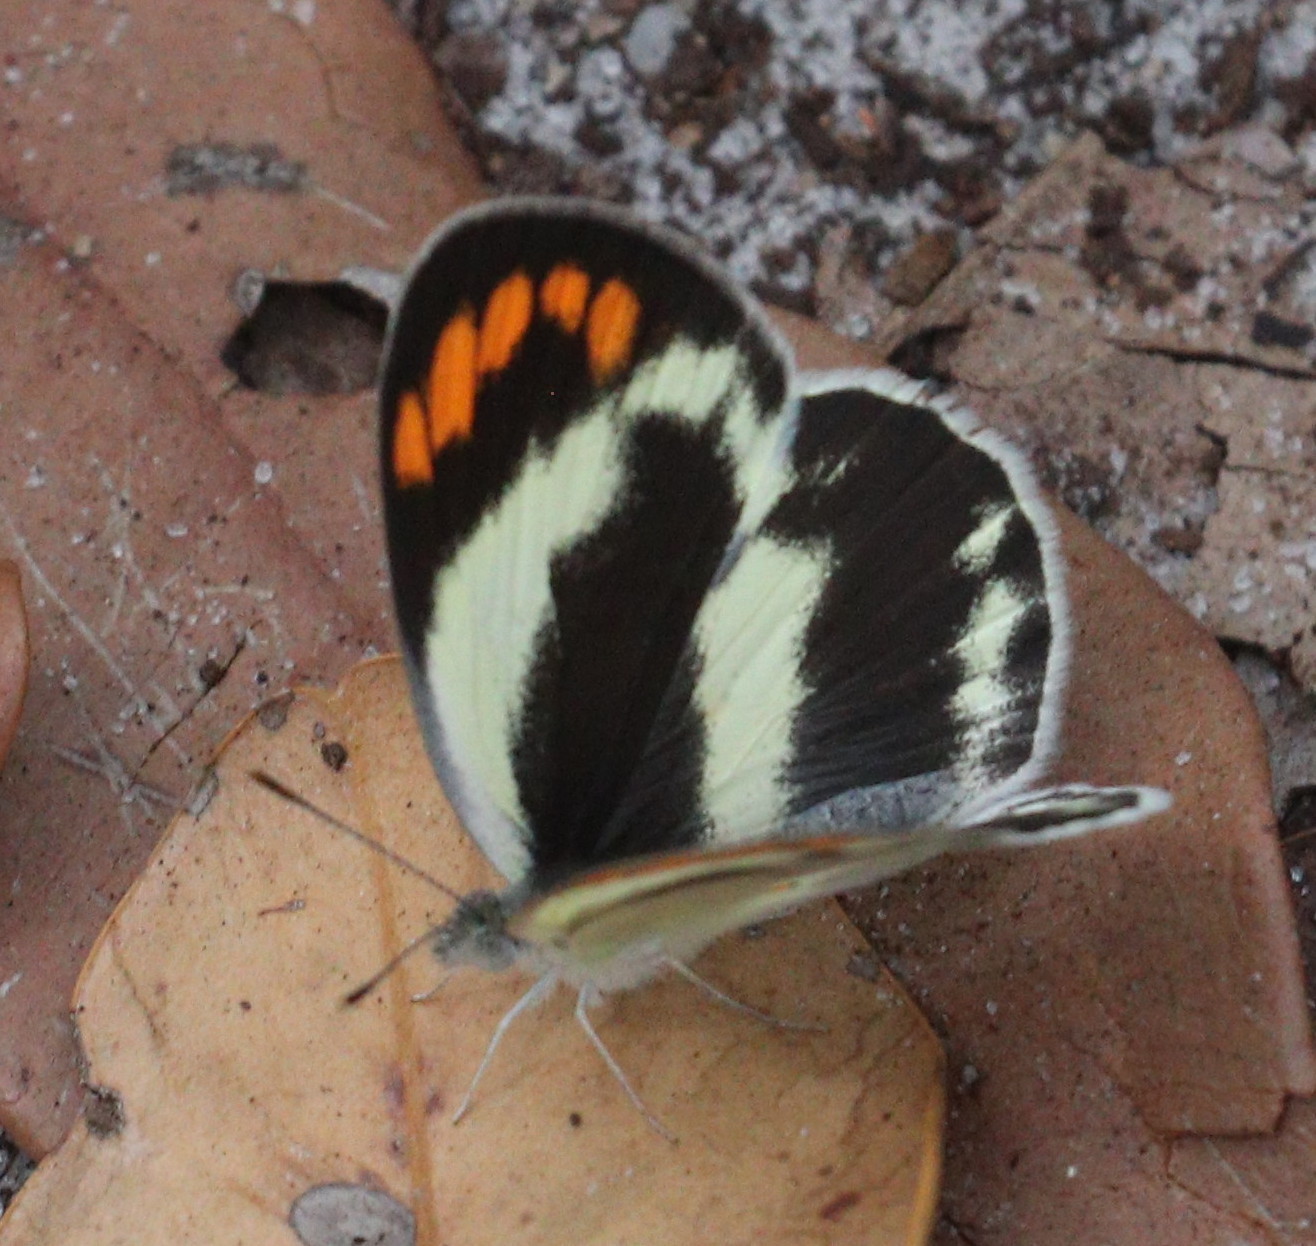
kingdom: Animalia
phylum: Arthropoda
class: Insecta
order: Lepidoptera
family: Pieridae
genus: Colotis
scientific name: Colotis euippe
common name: Round-winged orange tip
